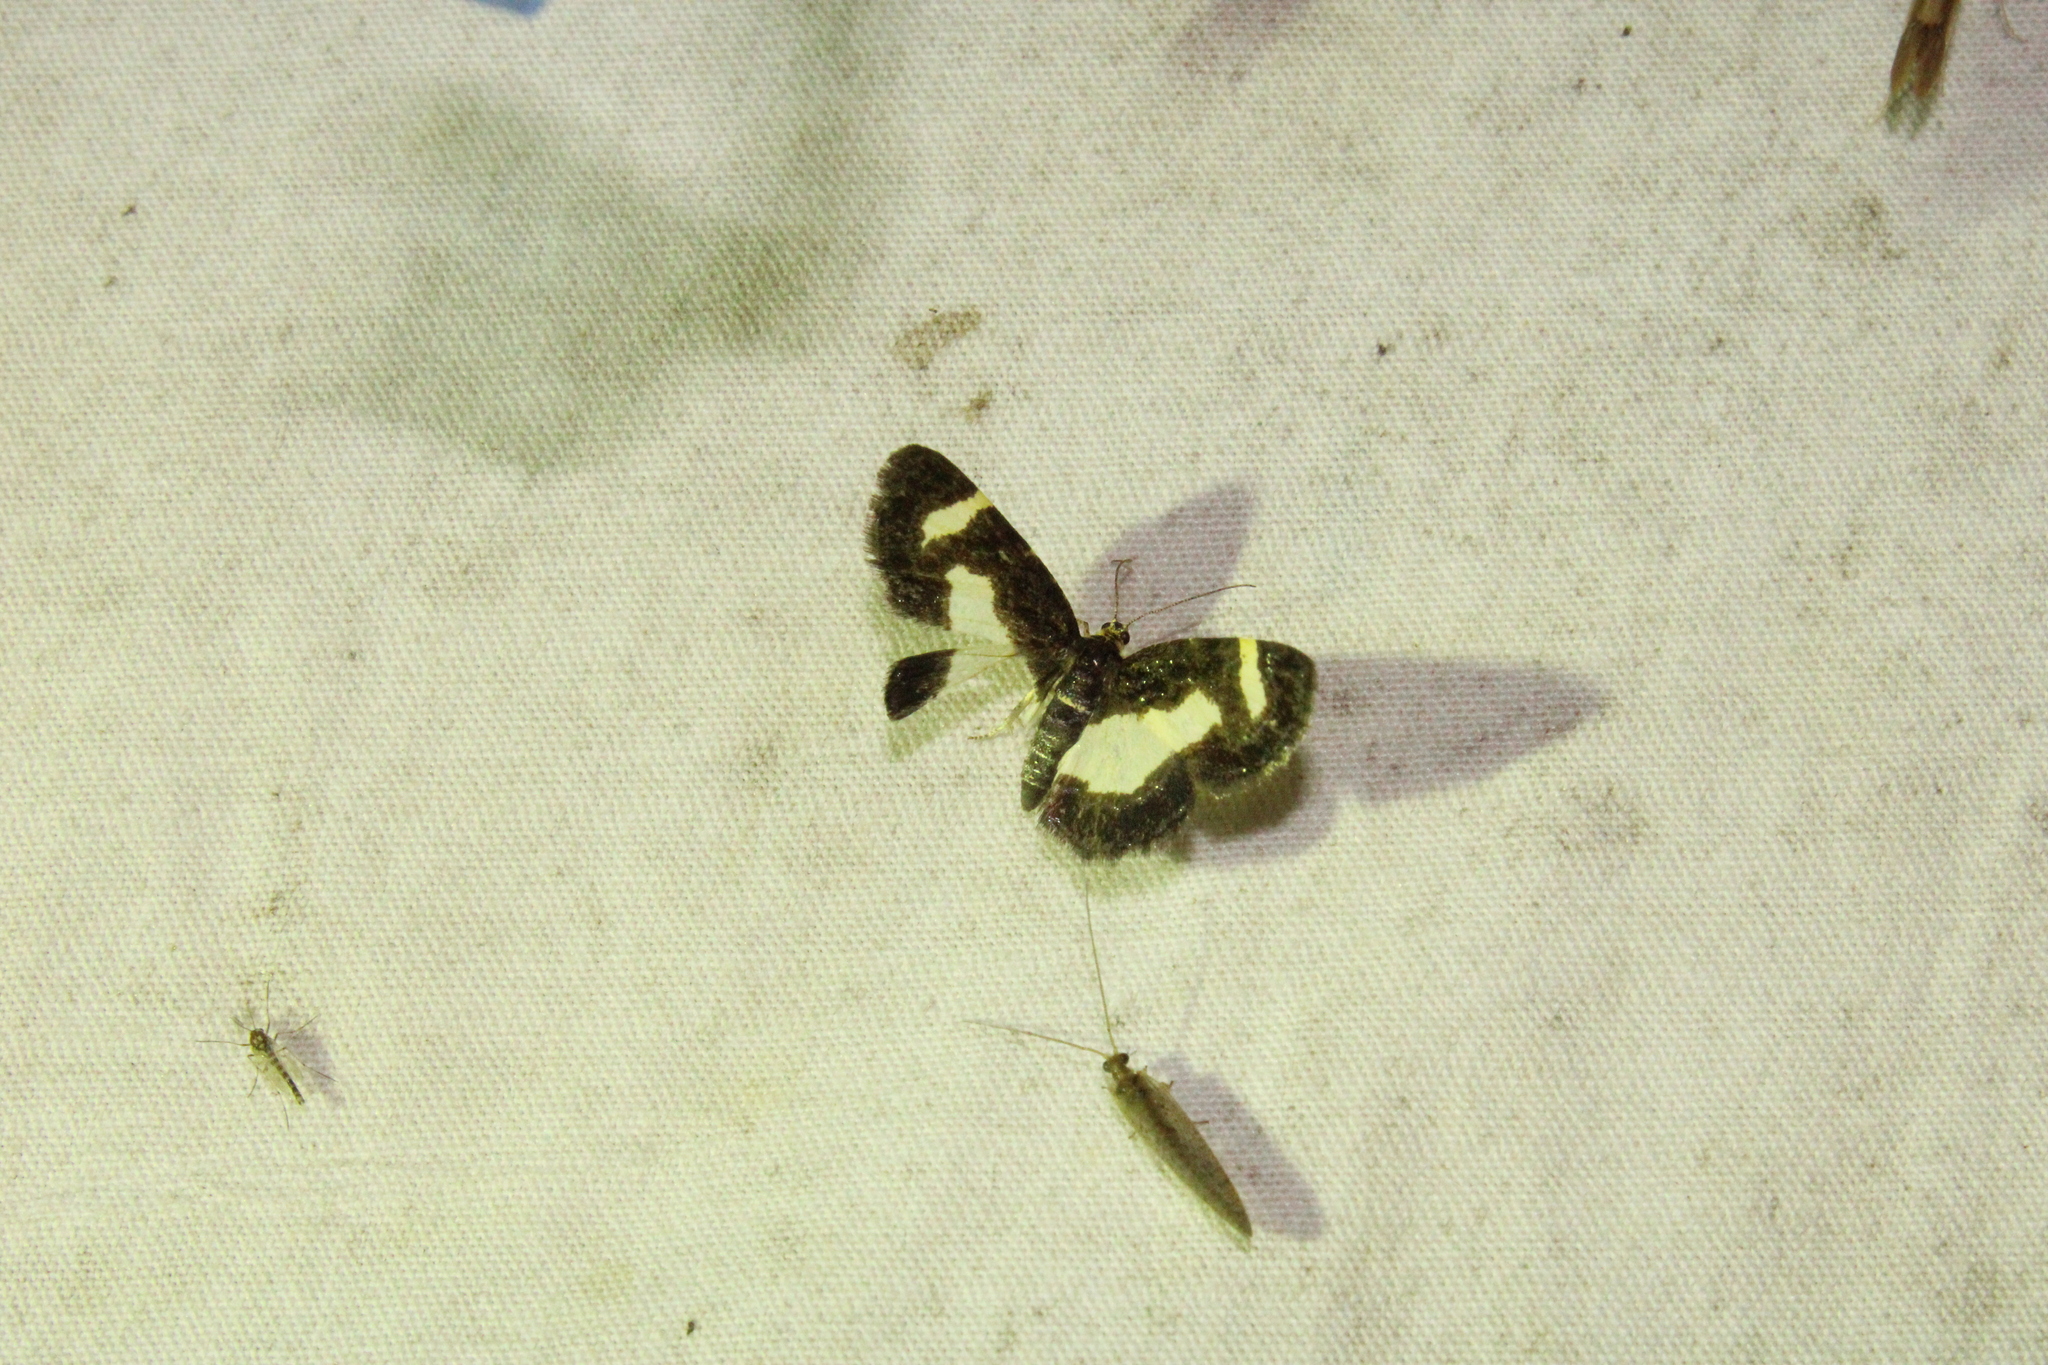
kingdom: Animalia
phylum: Arthropoda
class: Insecta
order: Lepidoptera
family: Geometridae
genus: Heliomata
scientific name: Heliomata cycladata
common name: Common spring moth
